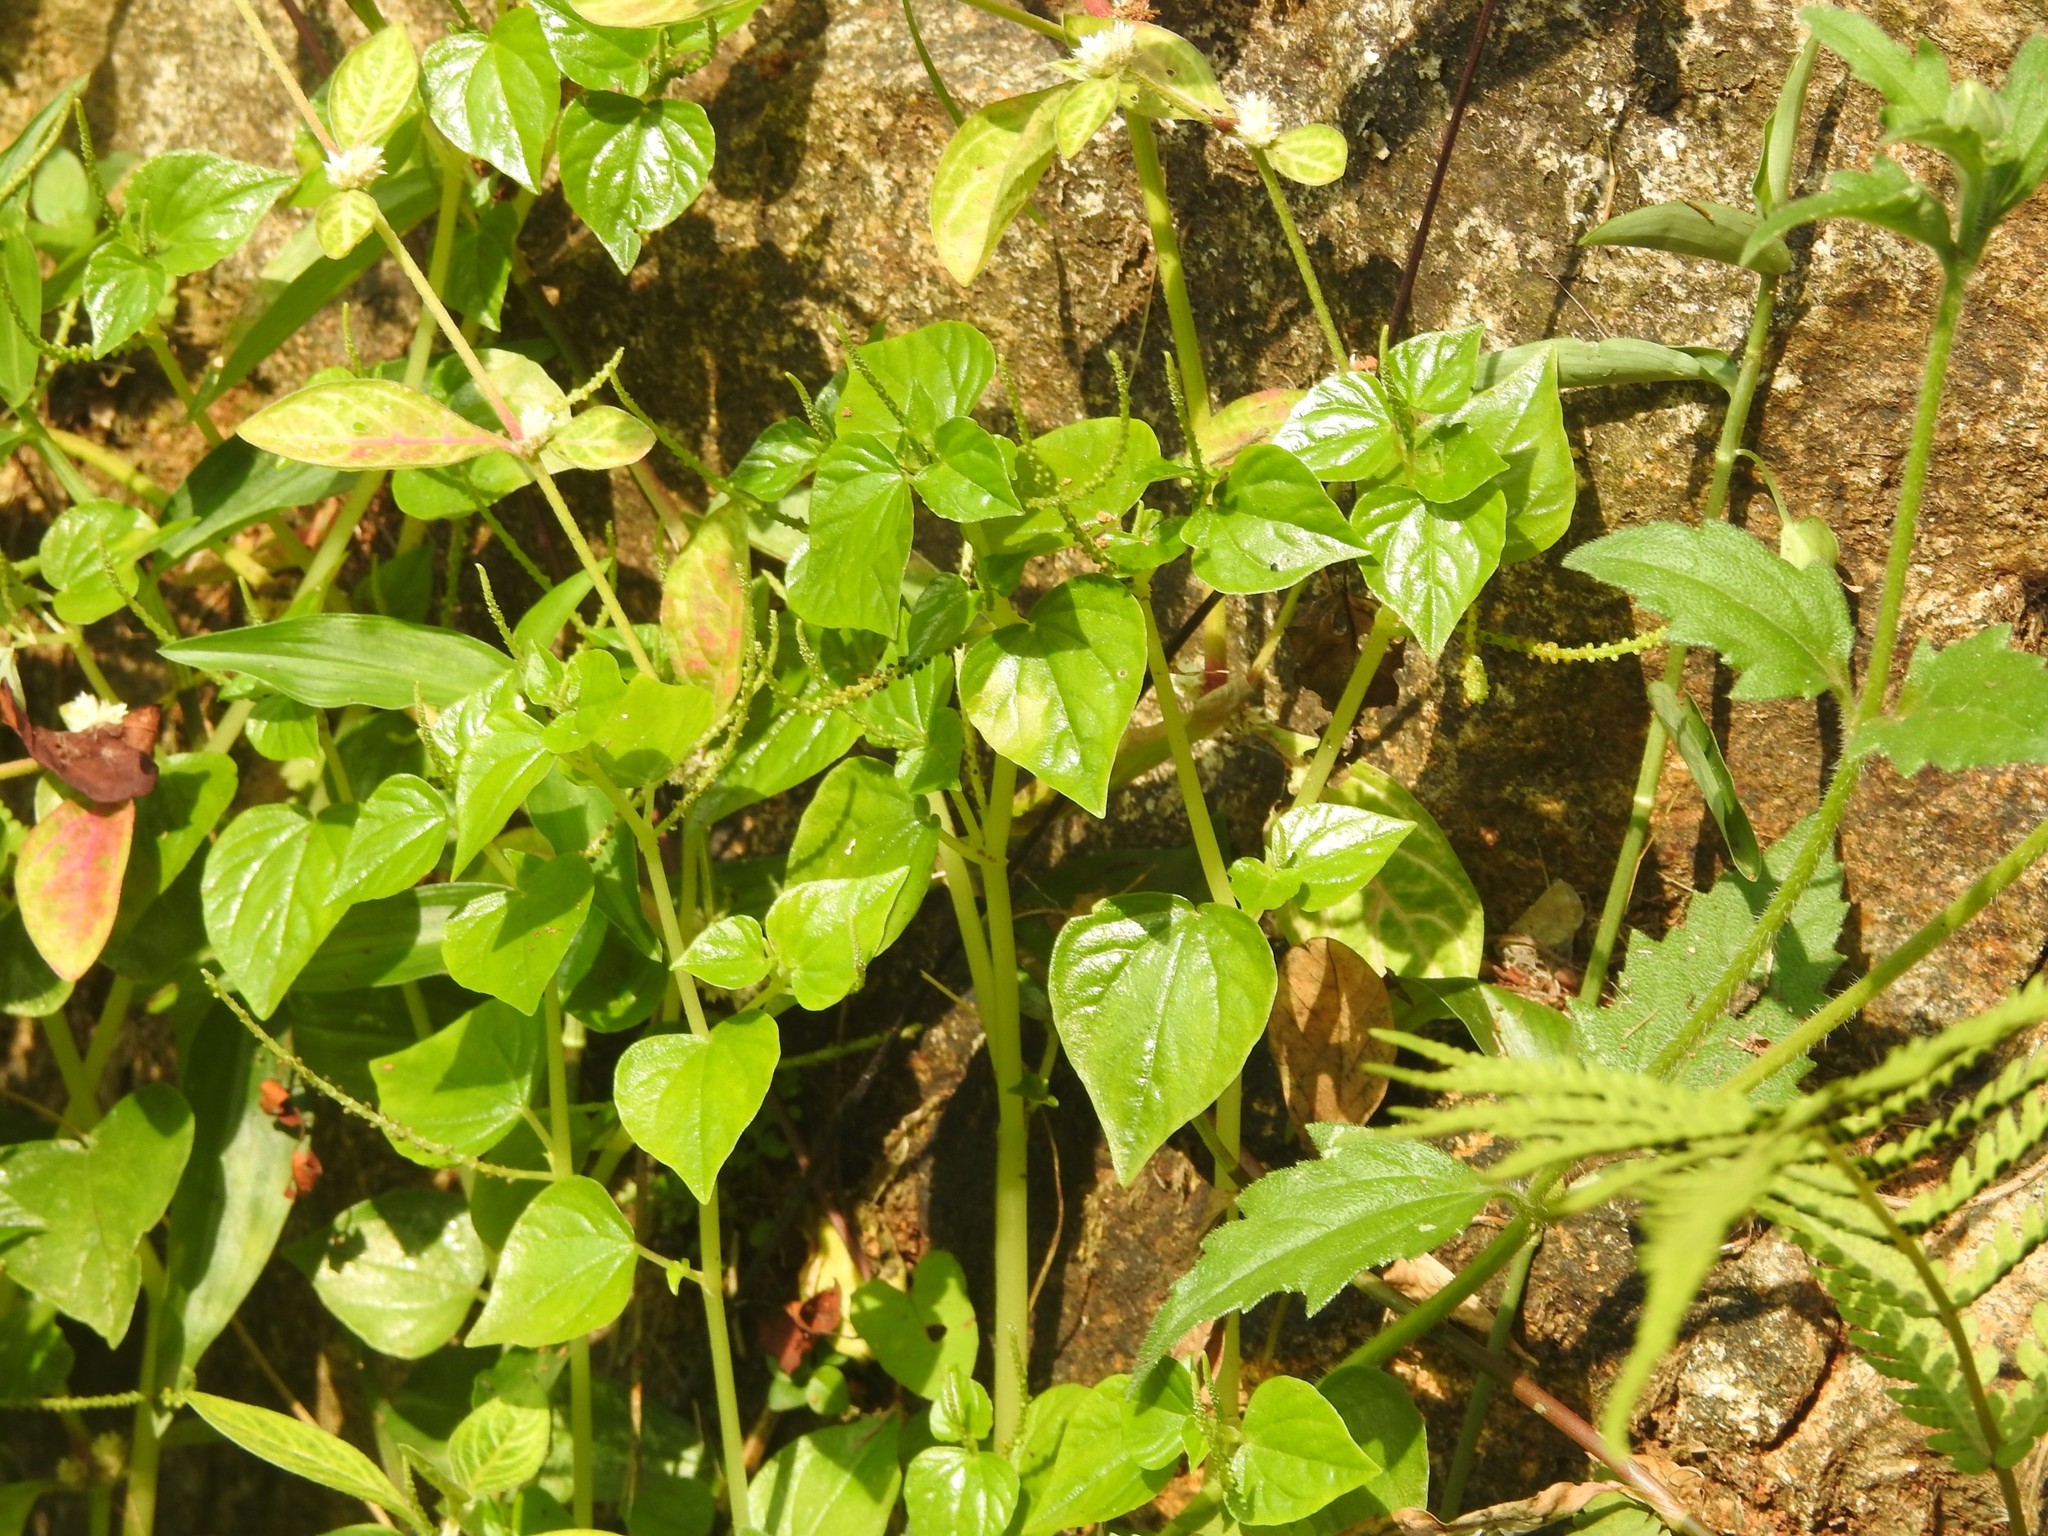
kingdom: Plantae
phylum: Tracheophyta
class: Magnoliopsida
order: Piperales
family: Piperaceae
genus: Peperomia
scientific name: Peperomia pellucida
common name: Man to man
